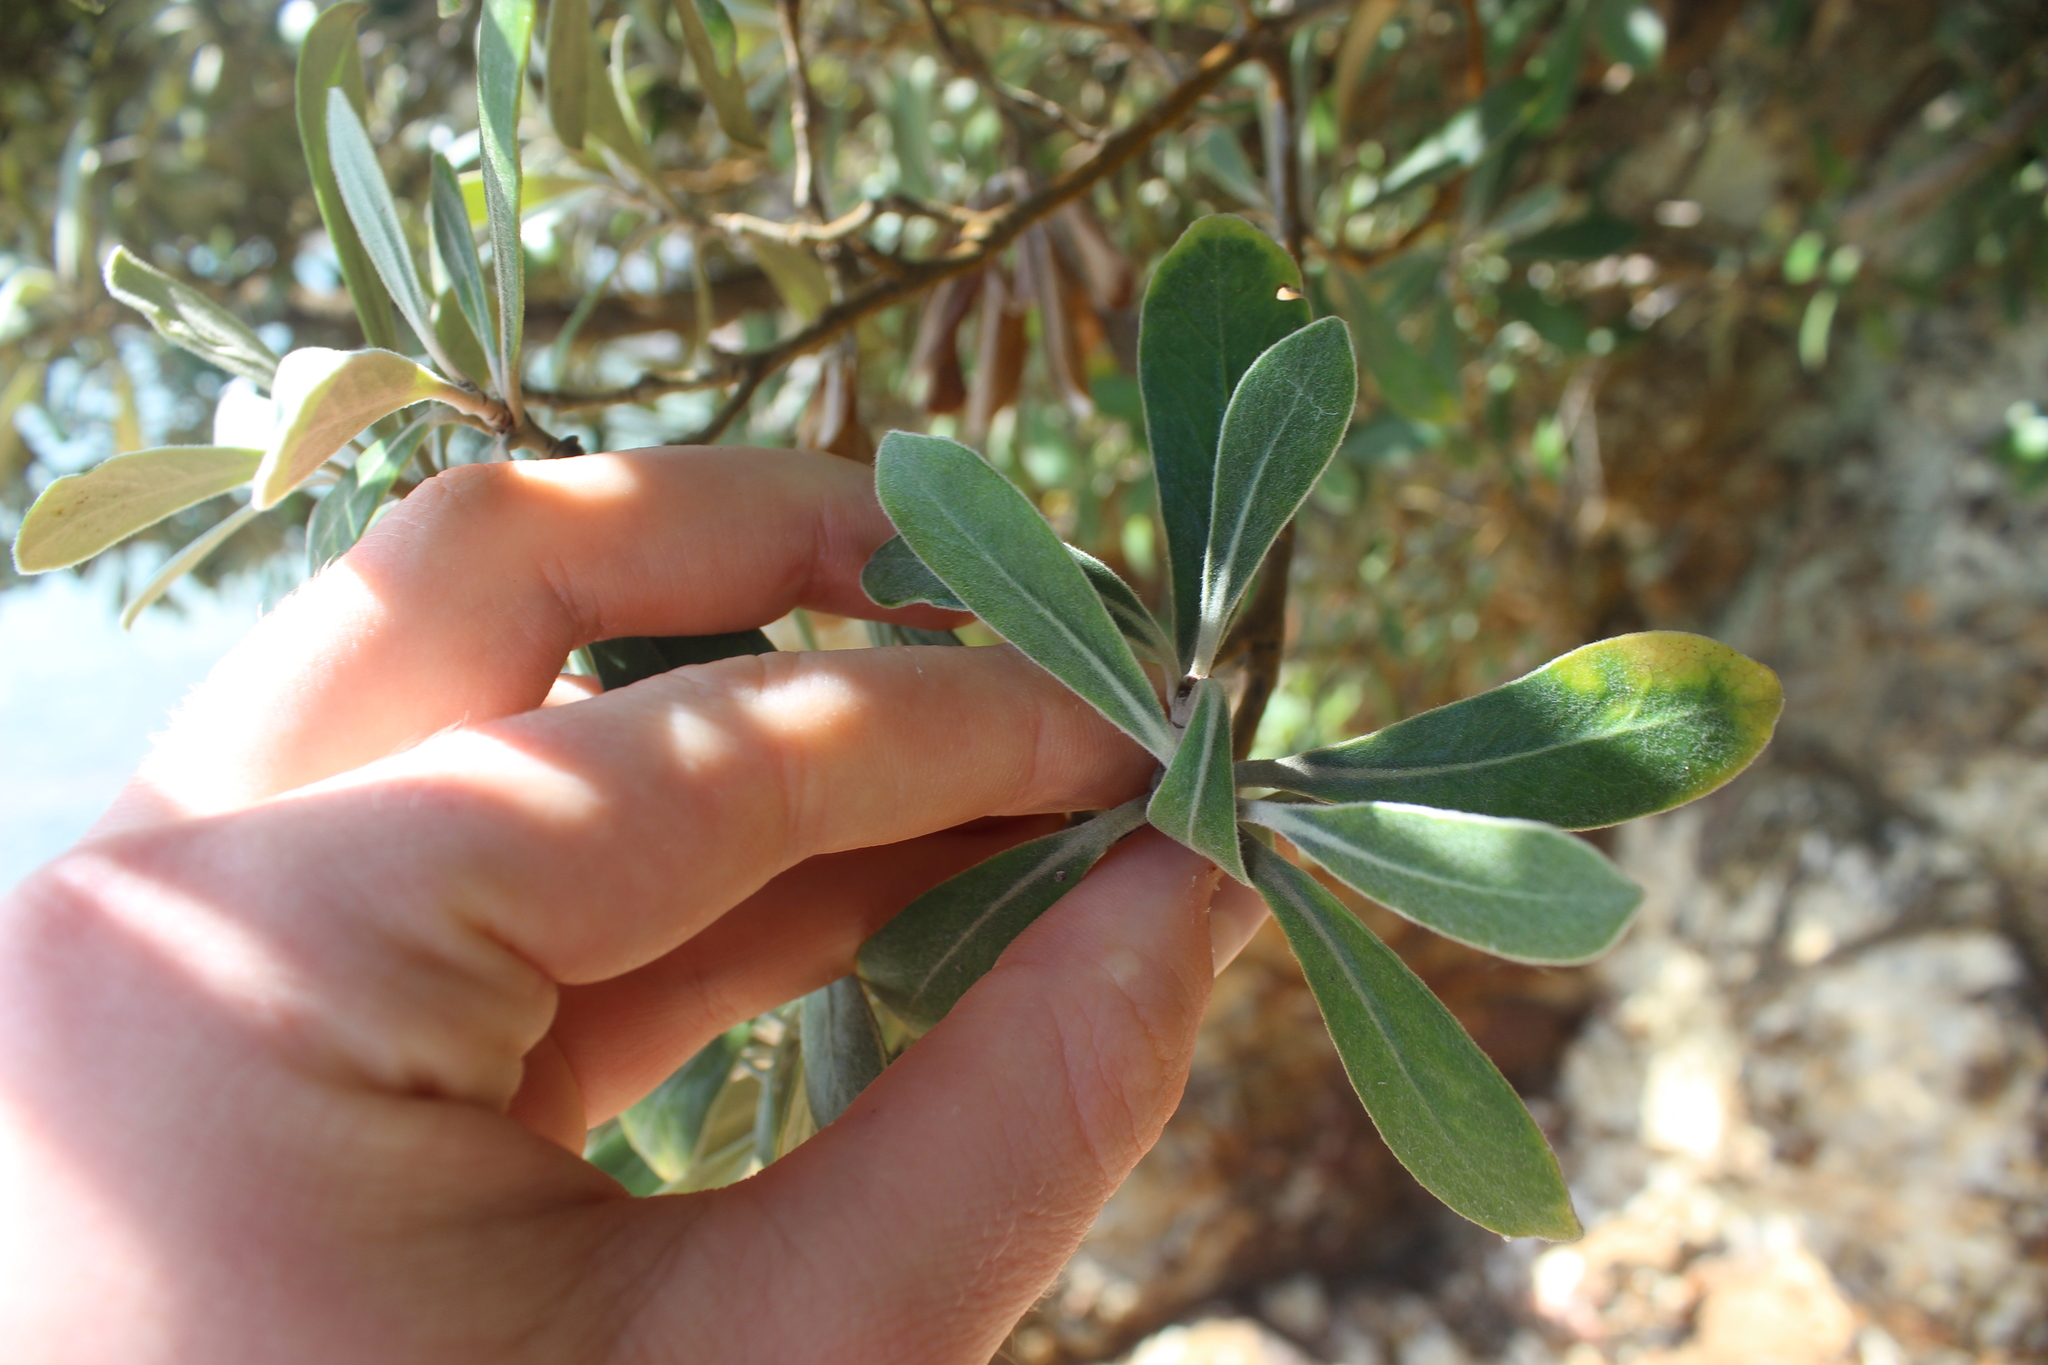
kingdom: Plantae
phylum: Tracheophyta
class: Magnoliopsida
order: Apiales
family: Pittosporaceae
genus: Pittosporum
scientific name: Pittosporum crassifolium
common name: Karo
